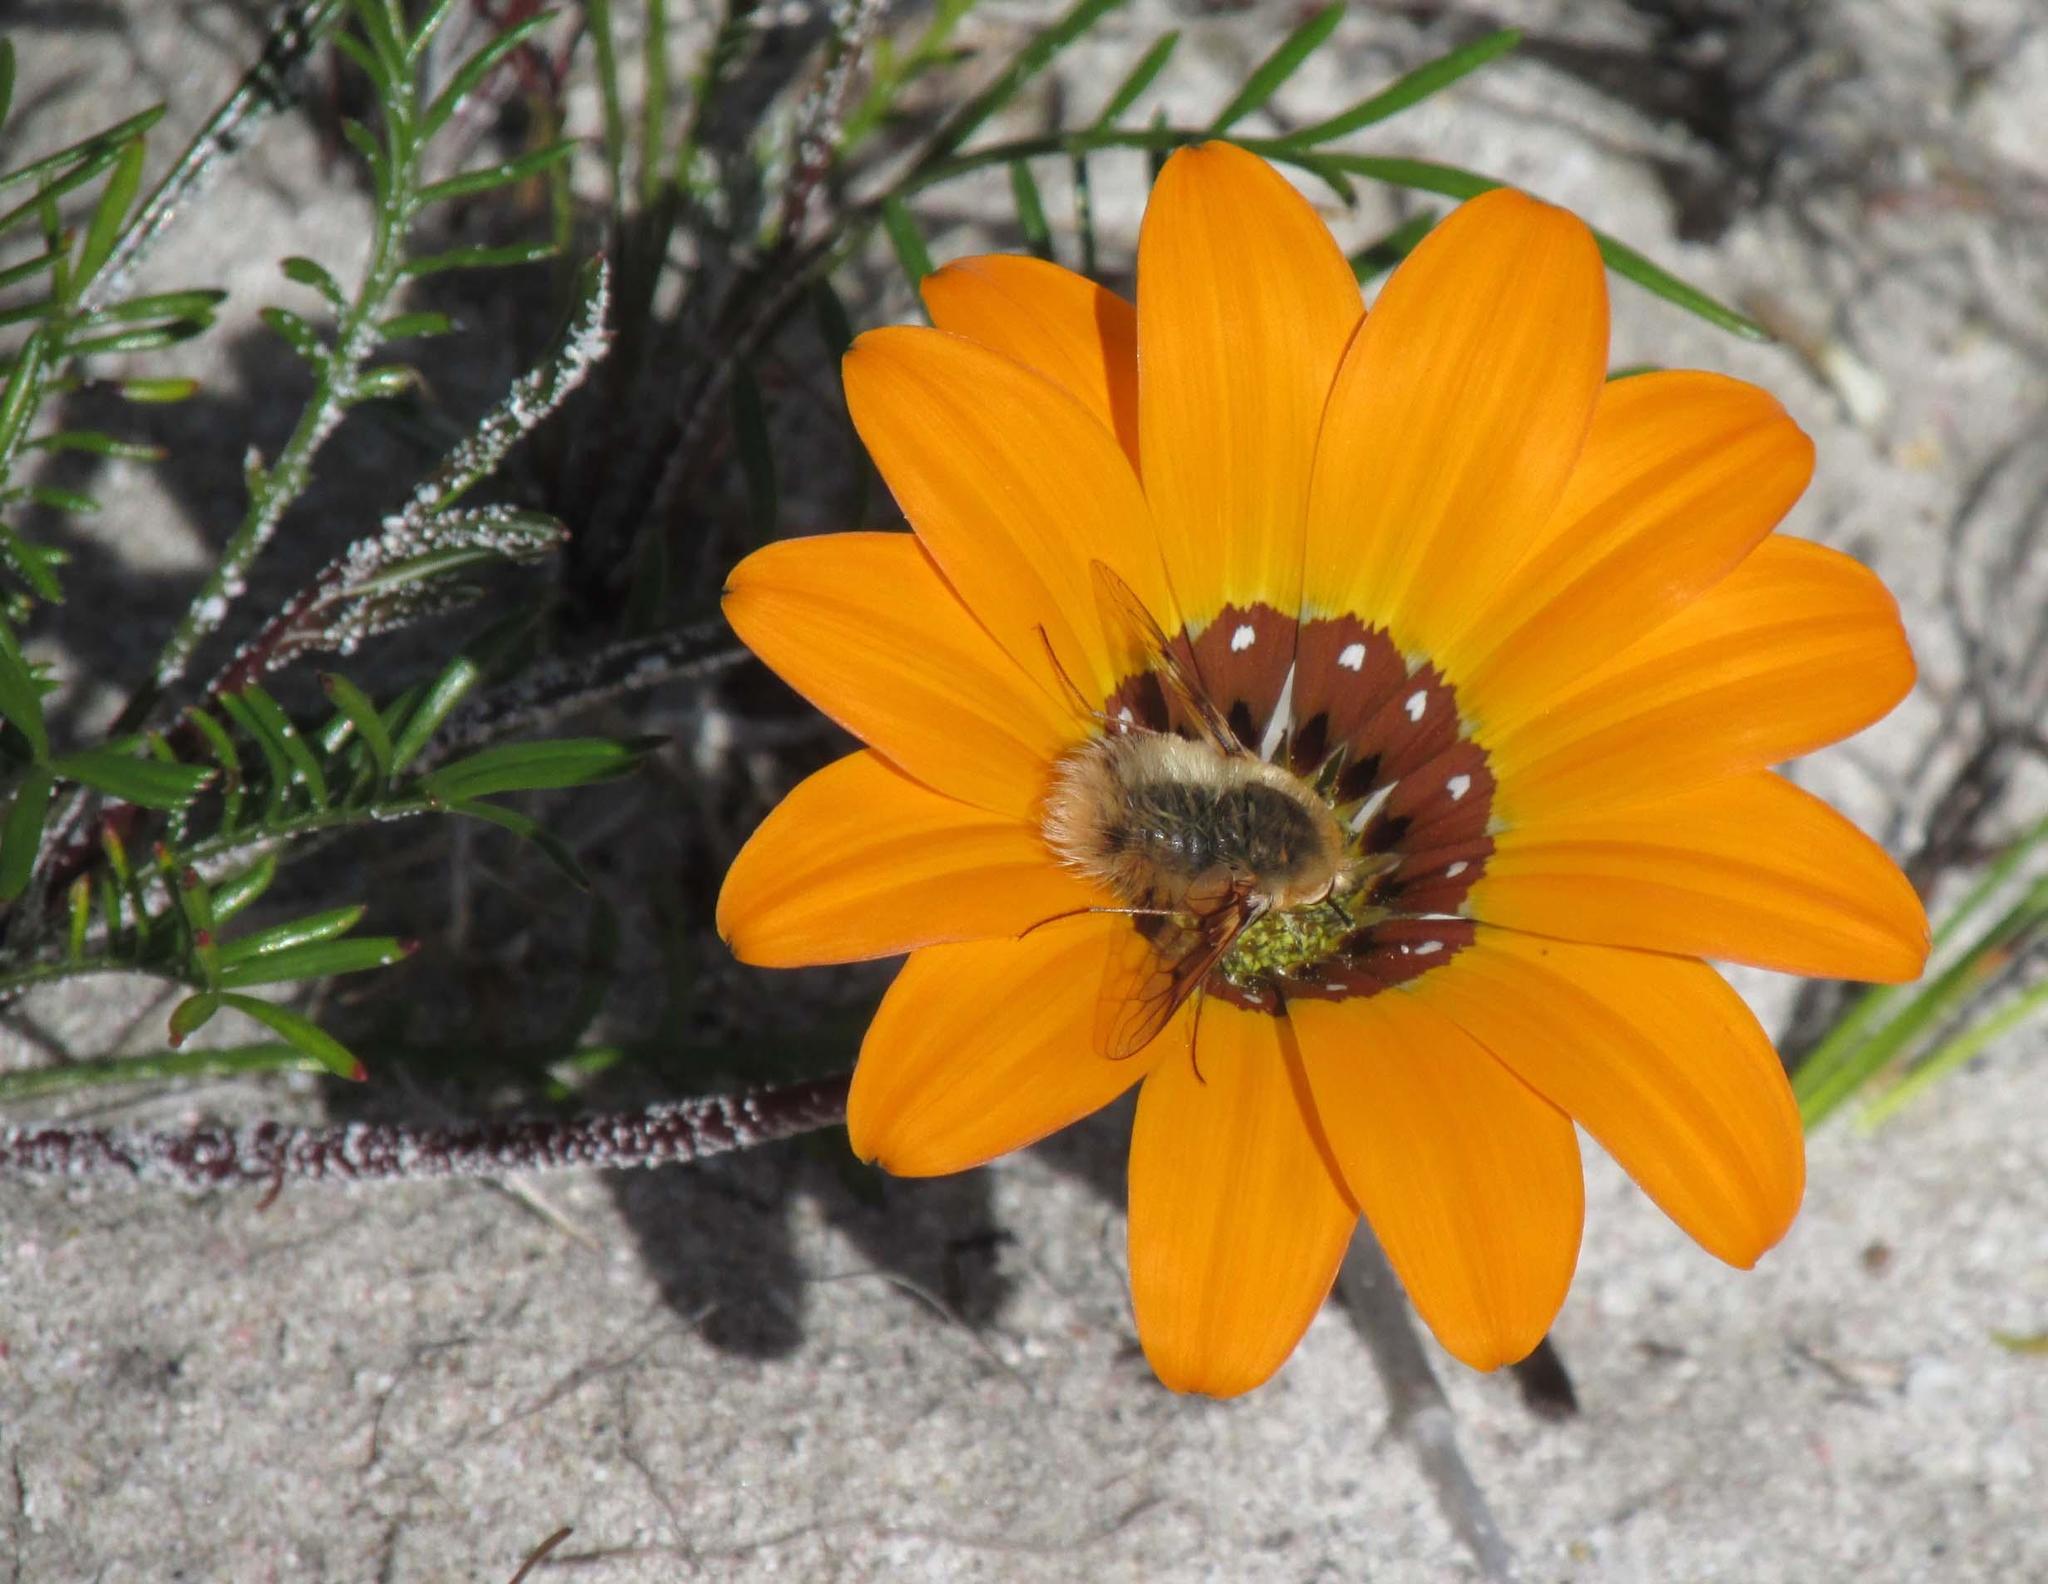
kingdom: Plantae
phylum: Tracheophyta
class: Magnoliopsida
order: Asterales
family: Asteraceae
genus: Gazania
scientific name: Gazania pectinata
